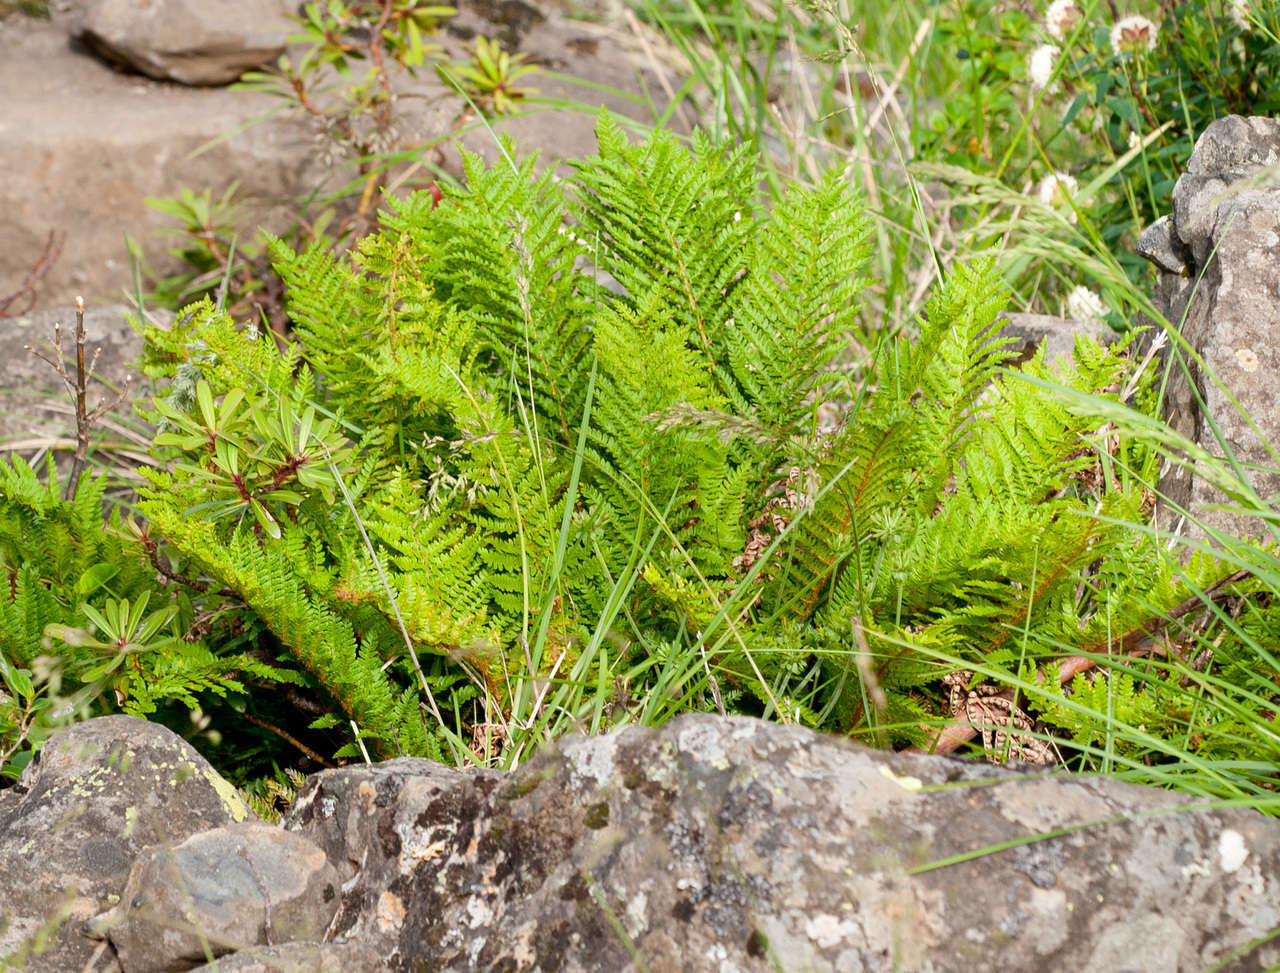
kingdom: Plantae
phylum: Tracheophyta
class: Polypodiopsida
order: Polypodiales
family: Dryopteridaceae
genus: Polystichum
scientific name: Polystichum proliferum
